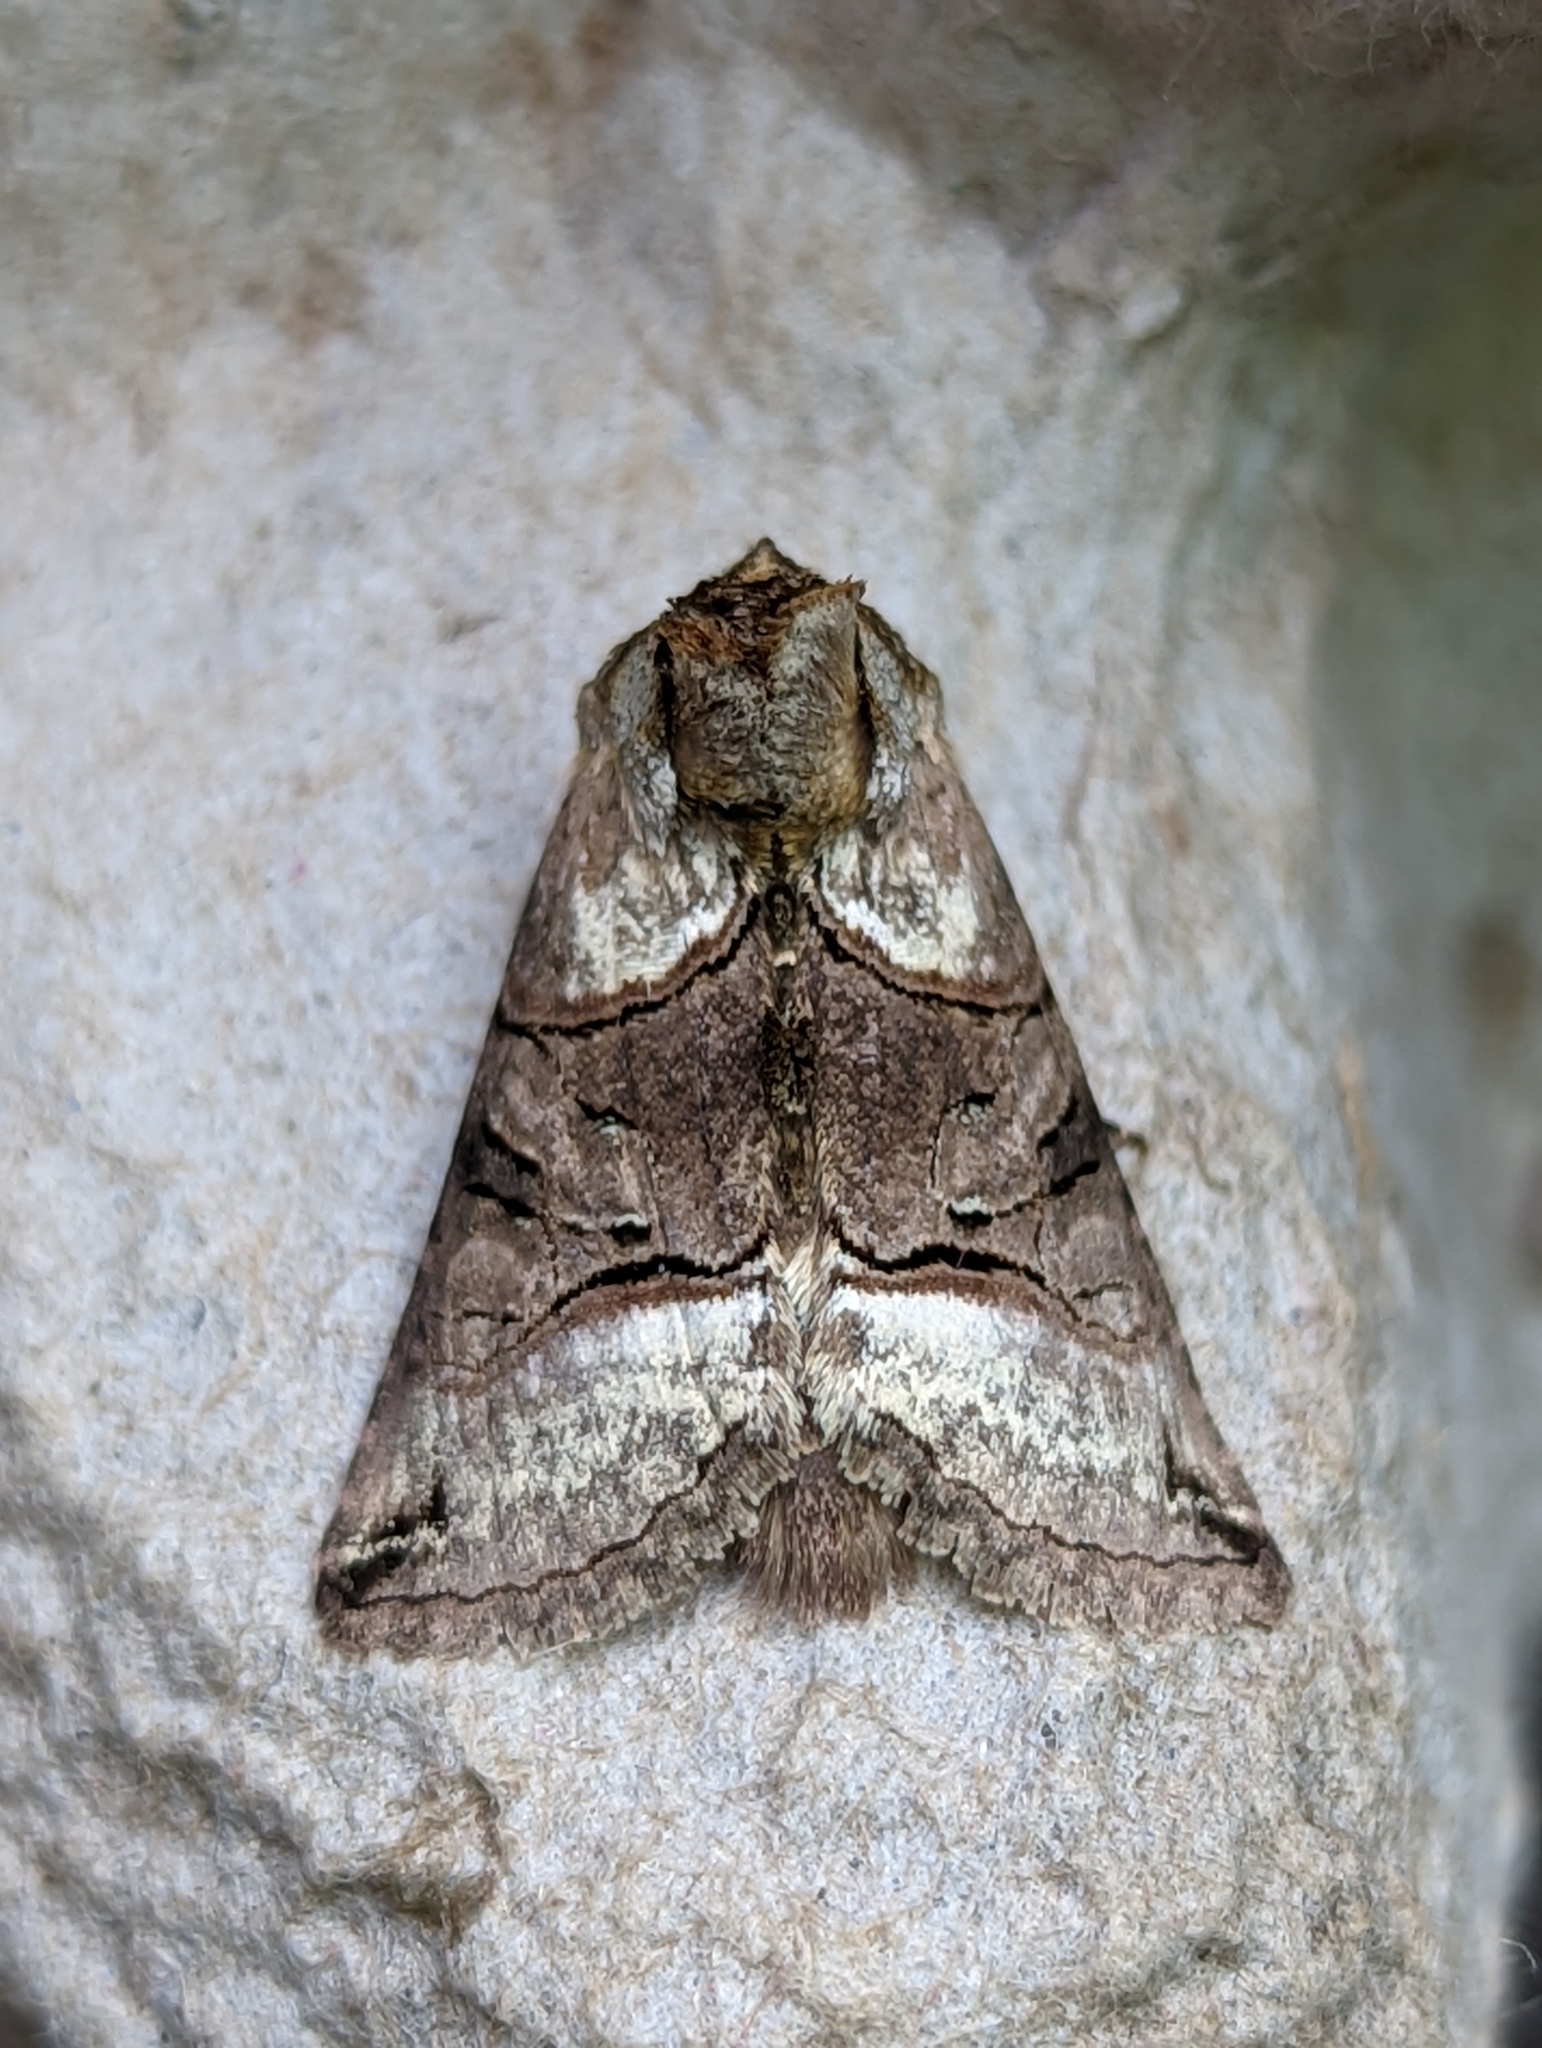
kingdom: Animalia
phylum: Arthropoda
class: Insecta
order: Lepidoptera
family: Noctuidae
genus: Abrostola
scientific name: Abrostola tripartita
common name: Spectacle
